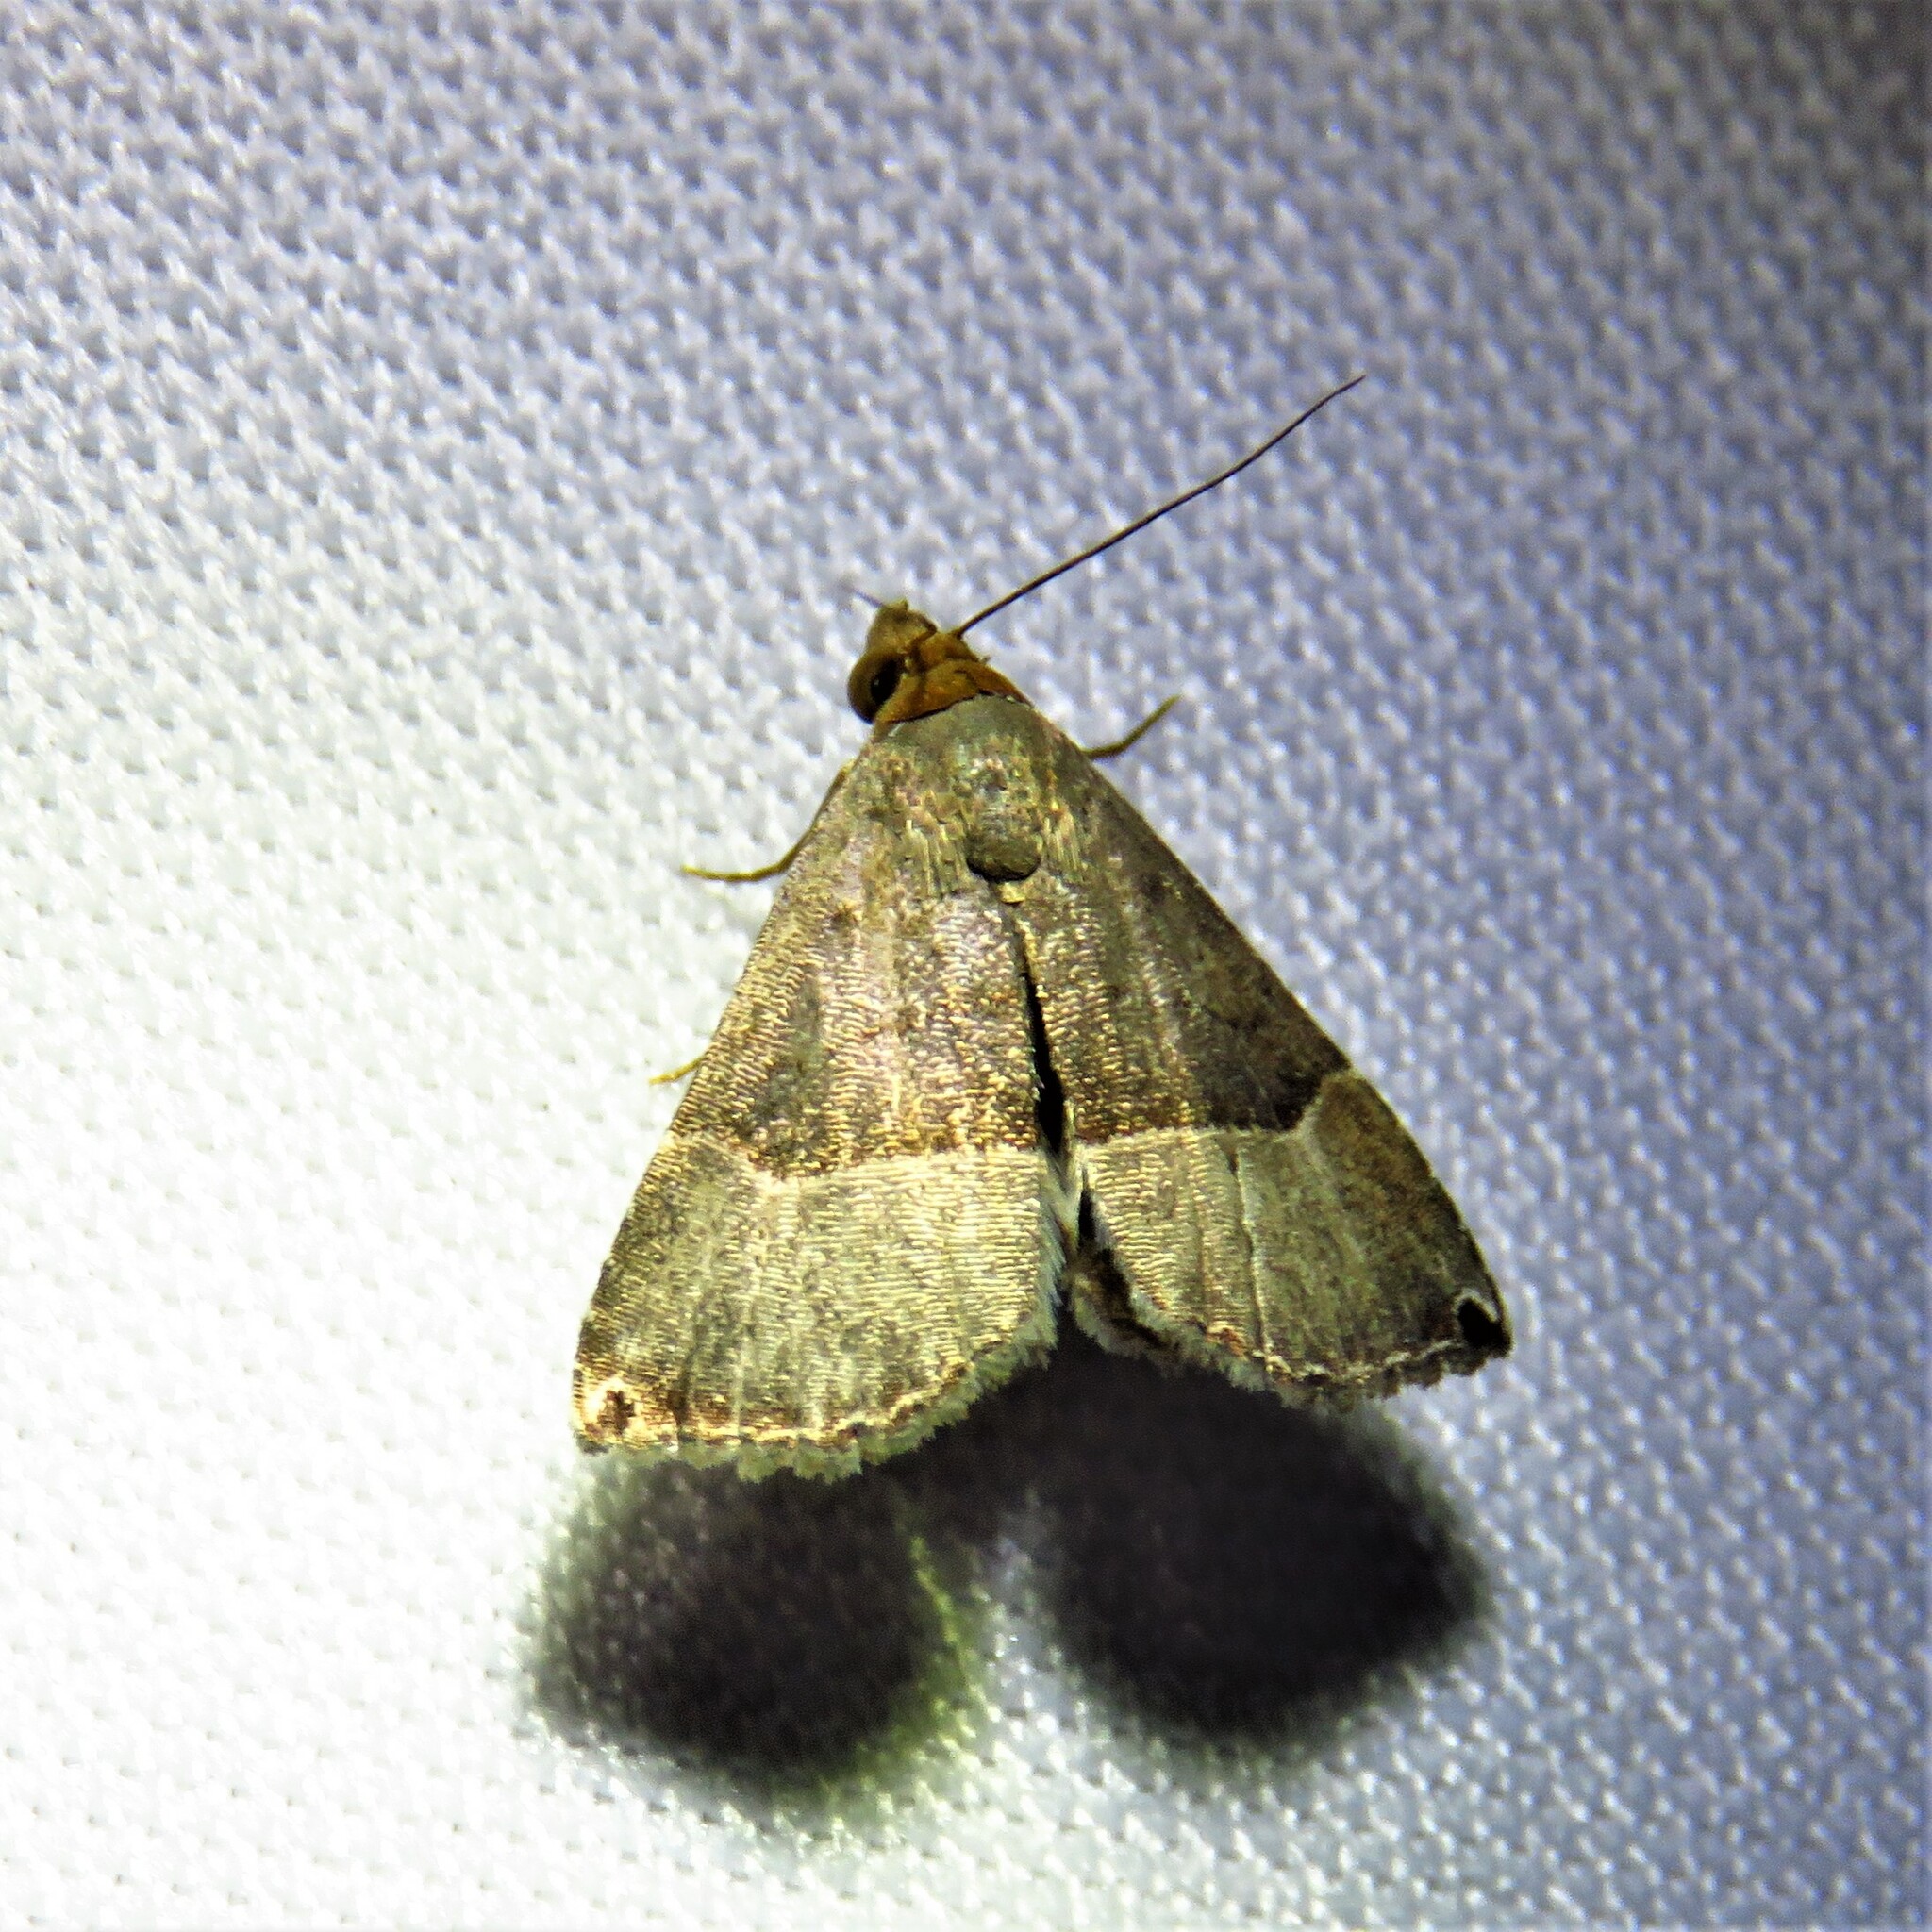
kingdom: Animalia
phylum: Arthropoda
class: Insecta
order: Lepidoptera
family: Noctuidae
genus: Abacena
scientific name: Abacena mundula
